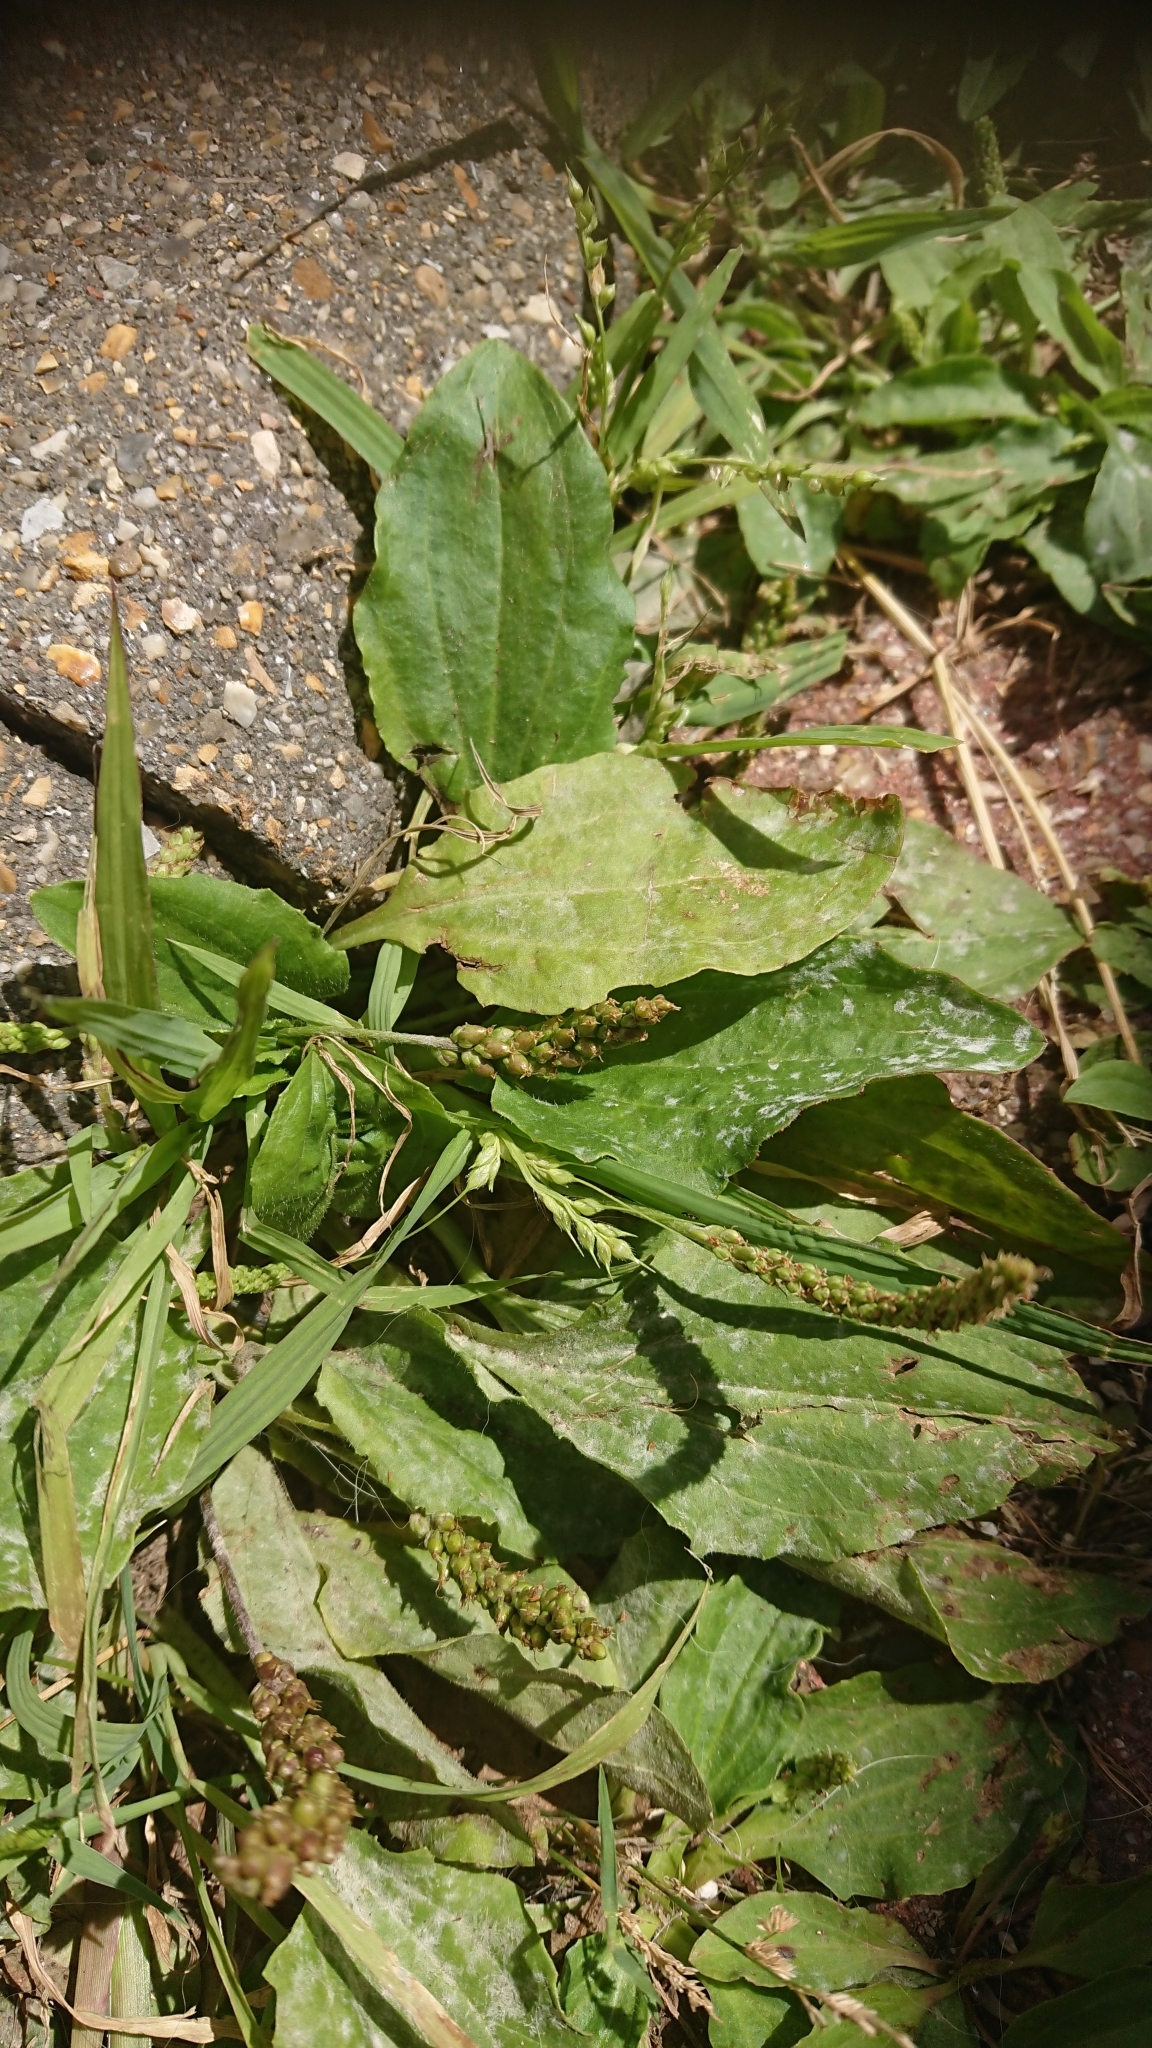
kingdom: Plantae
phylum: Tracheophyta
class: Magnoliopsida
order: Lamiales
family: Plantaginaceae
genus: Plantago
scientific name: Plantago major
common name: Common plantain
